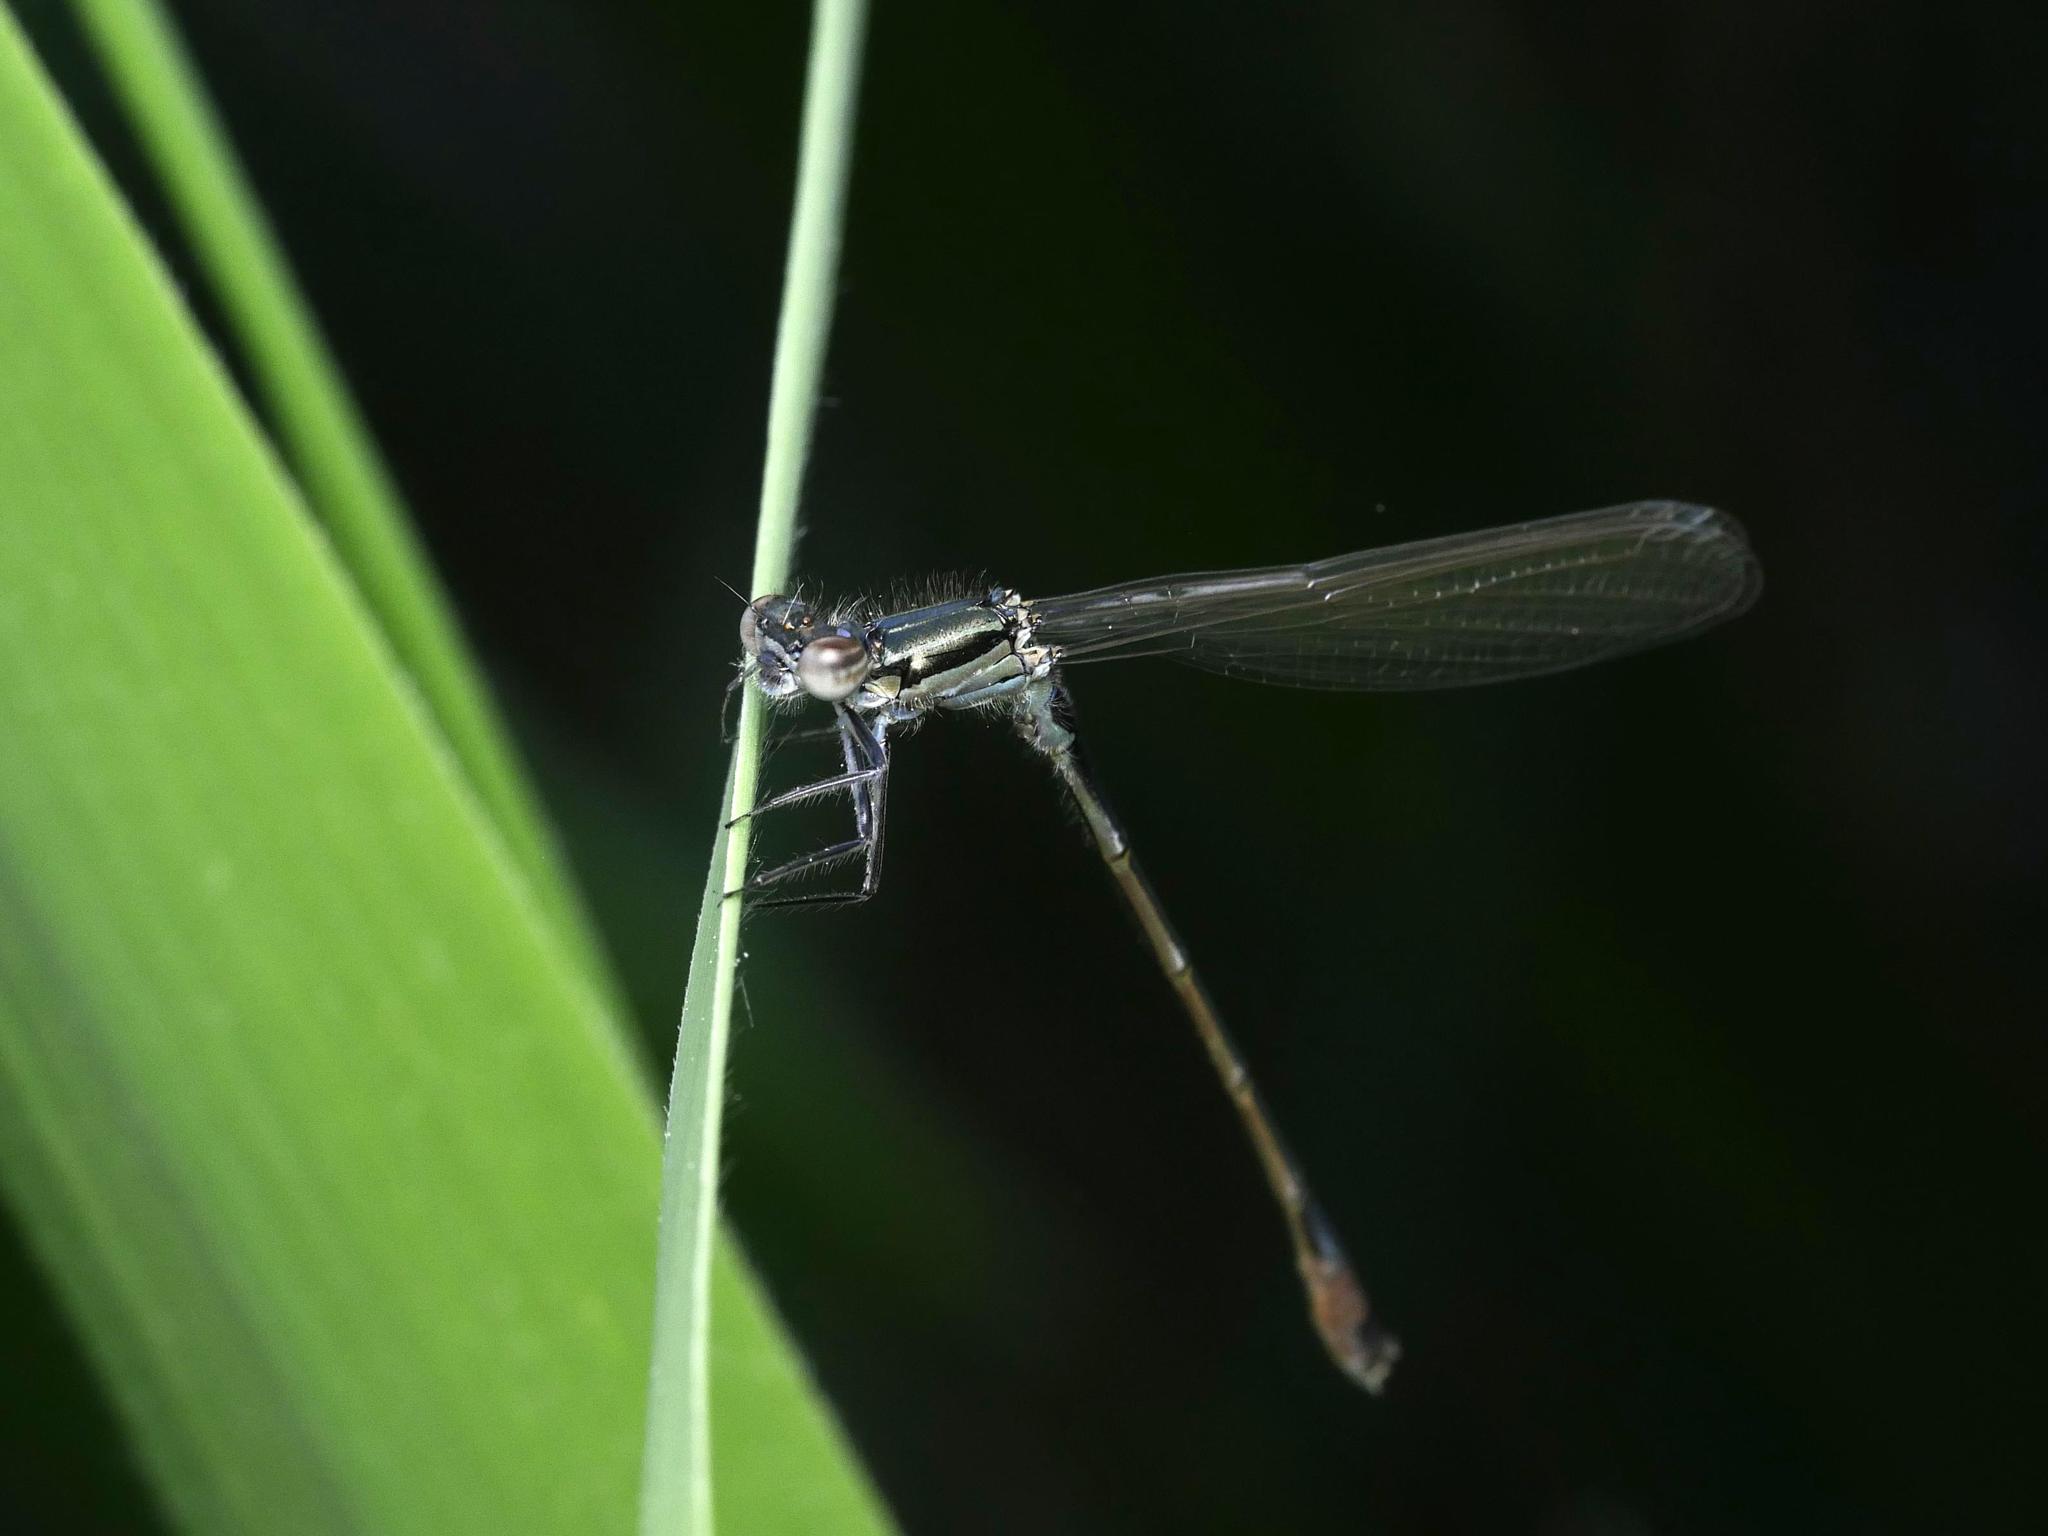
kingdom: Animalia
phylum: Arthropoda
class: Insecta
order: Odonata
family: Coenagrionidae
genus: Ischnura
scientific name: Ischnura elegans
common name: Blue-tailed damselfly
